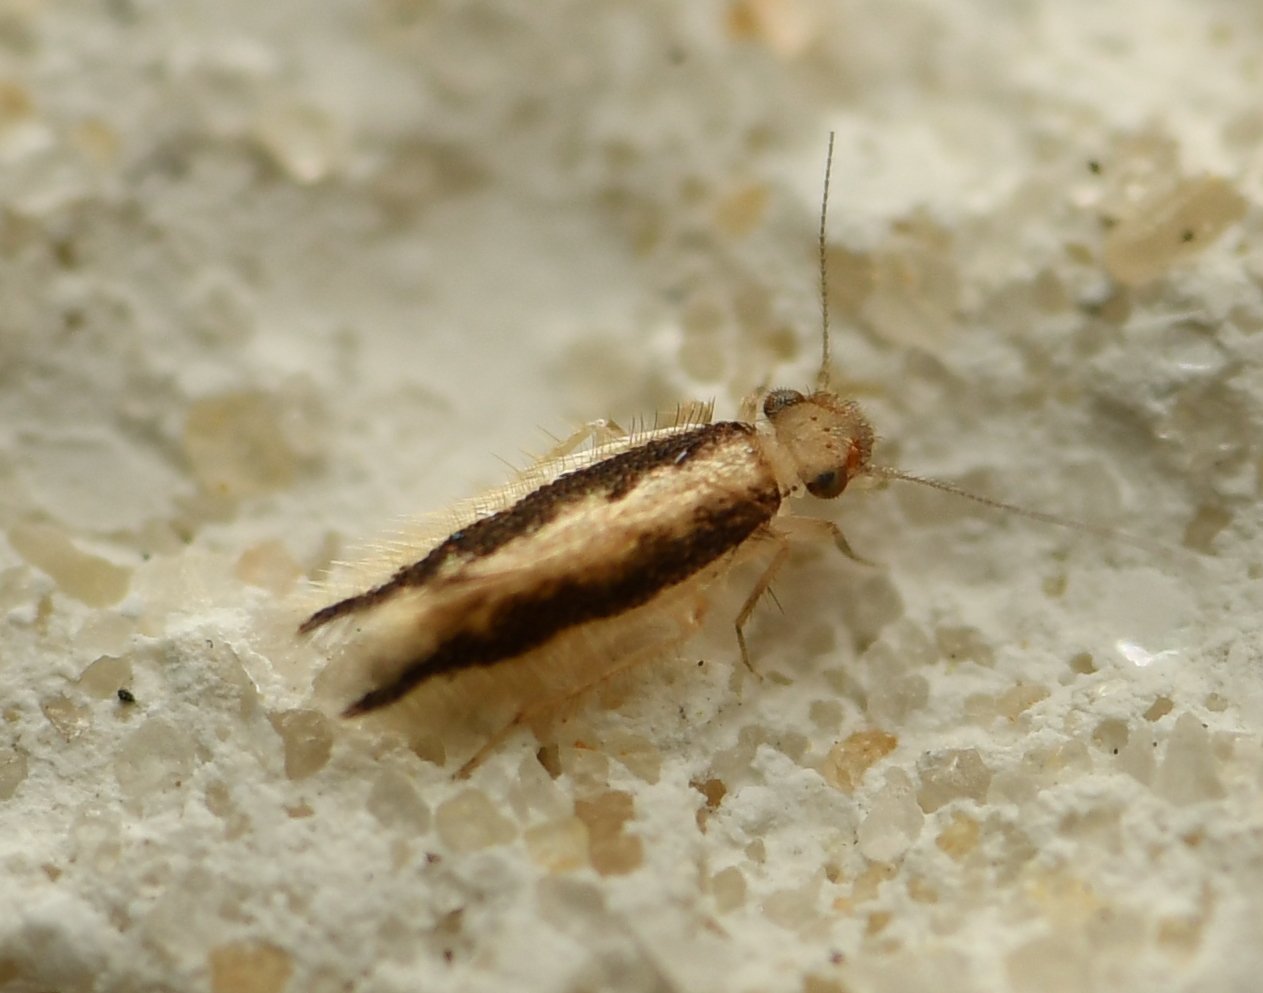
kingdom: Animalia
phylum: Arthropoda
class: Insecta
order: Psocodea
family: Lepidopsocidae
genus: Echmepteryx
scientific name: Echmepteryx madagascariensis
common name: Bark lice
